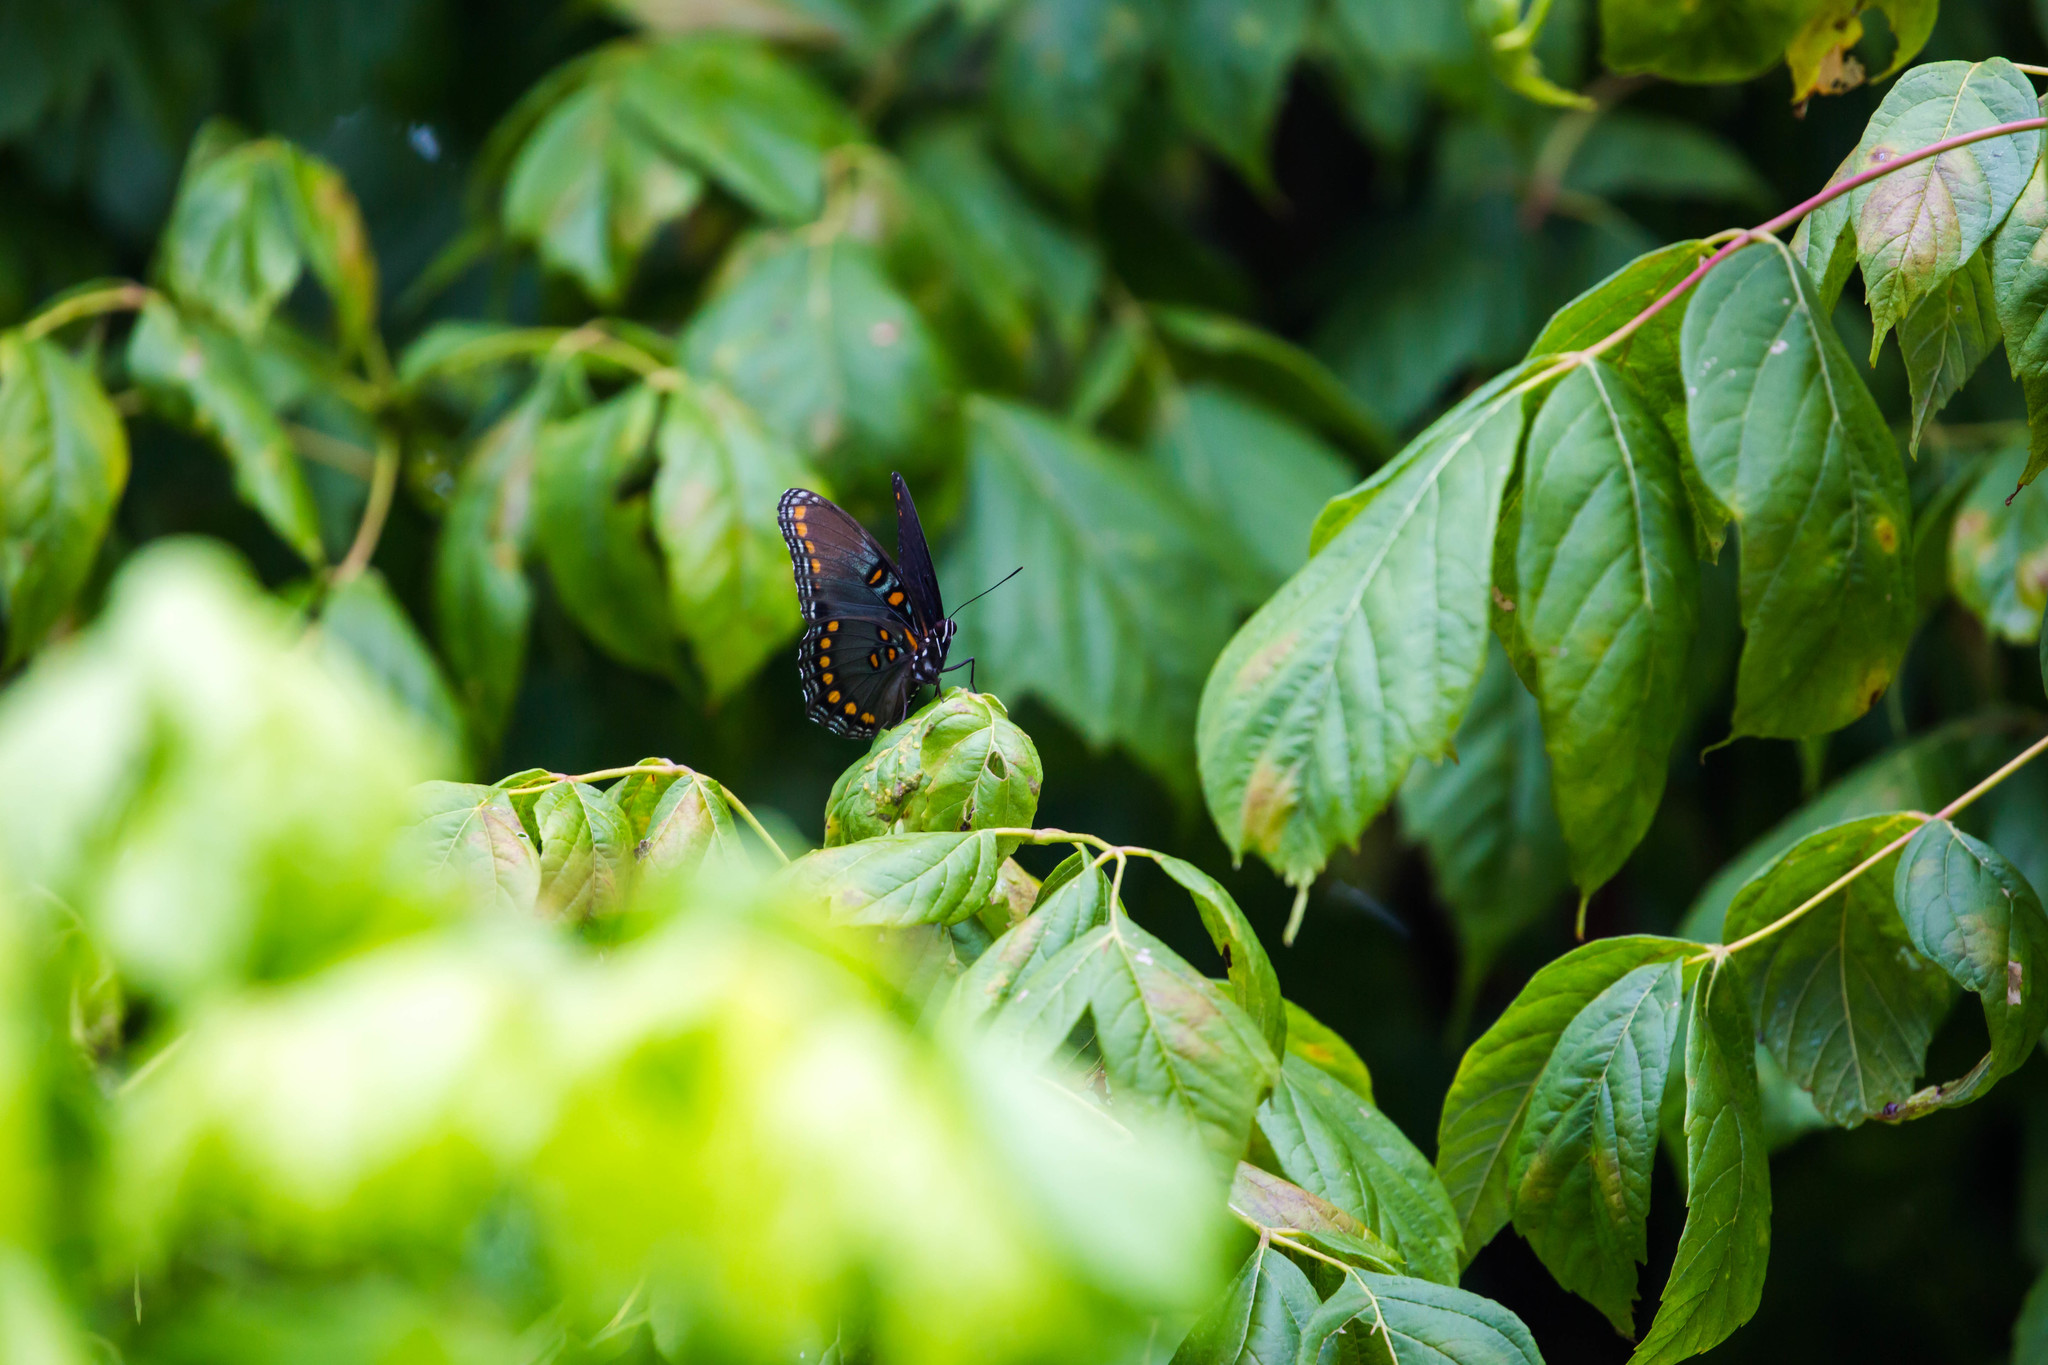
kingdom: Animalia
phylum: Arthropoda
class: Insecta
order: Lepidoptera
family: Nymphalidae
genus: Limenitis
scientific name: Limenitis astyanax
